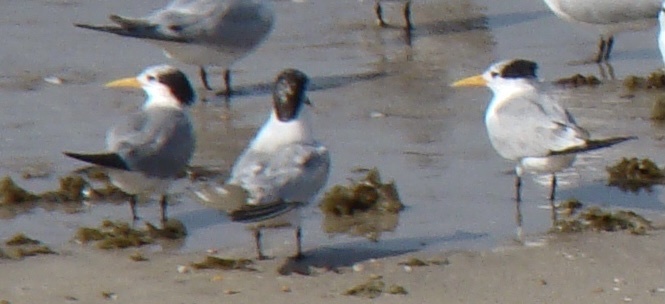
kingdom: Animalia
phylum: Chordata
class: Aves
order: Charadriiformes
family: Laridae
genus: Thalasseus
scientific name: Thalasseus bergii
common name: Greater crested tern
